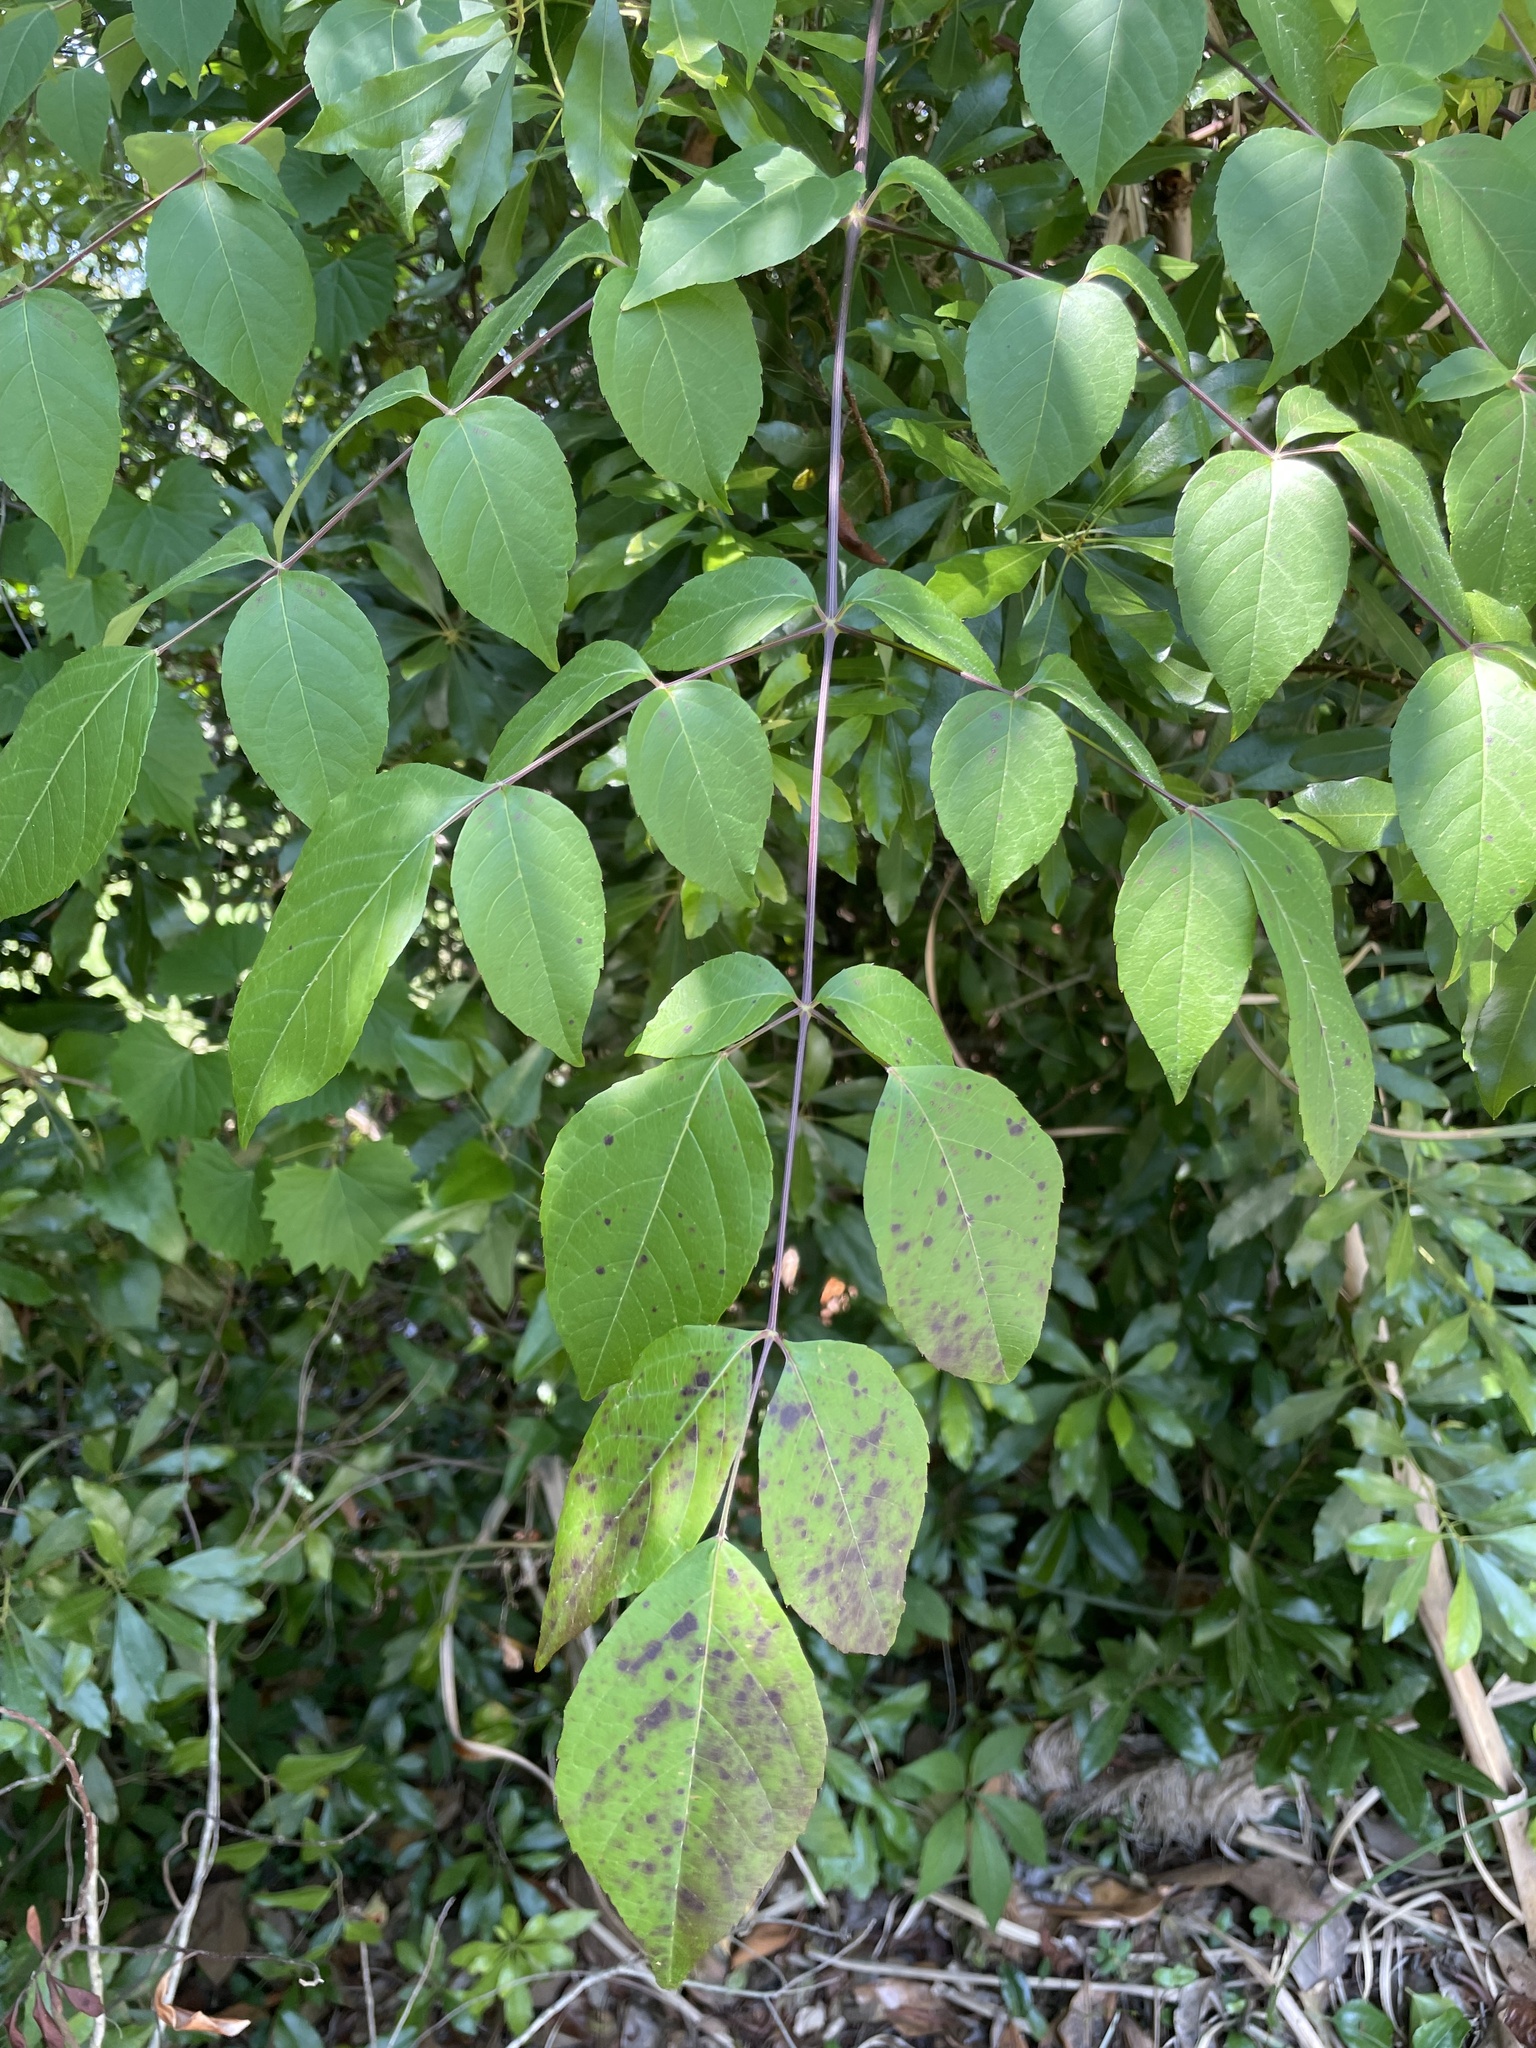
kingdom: Plantae
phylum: Tracheophyta
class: Magnoliopsida
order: Apiales
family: Araliaceae
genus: Aralia
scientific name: Aralia spinosa
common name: Hercules'-club
